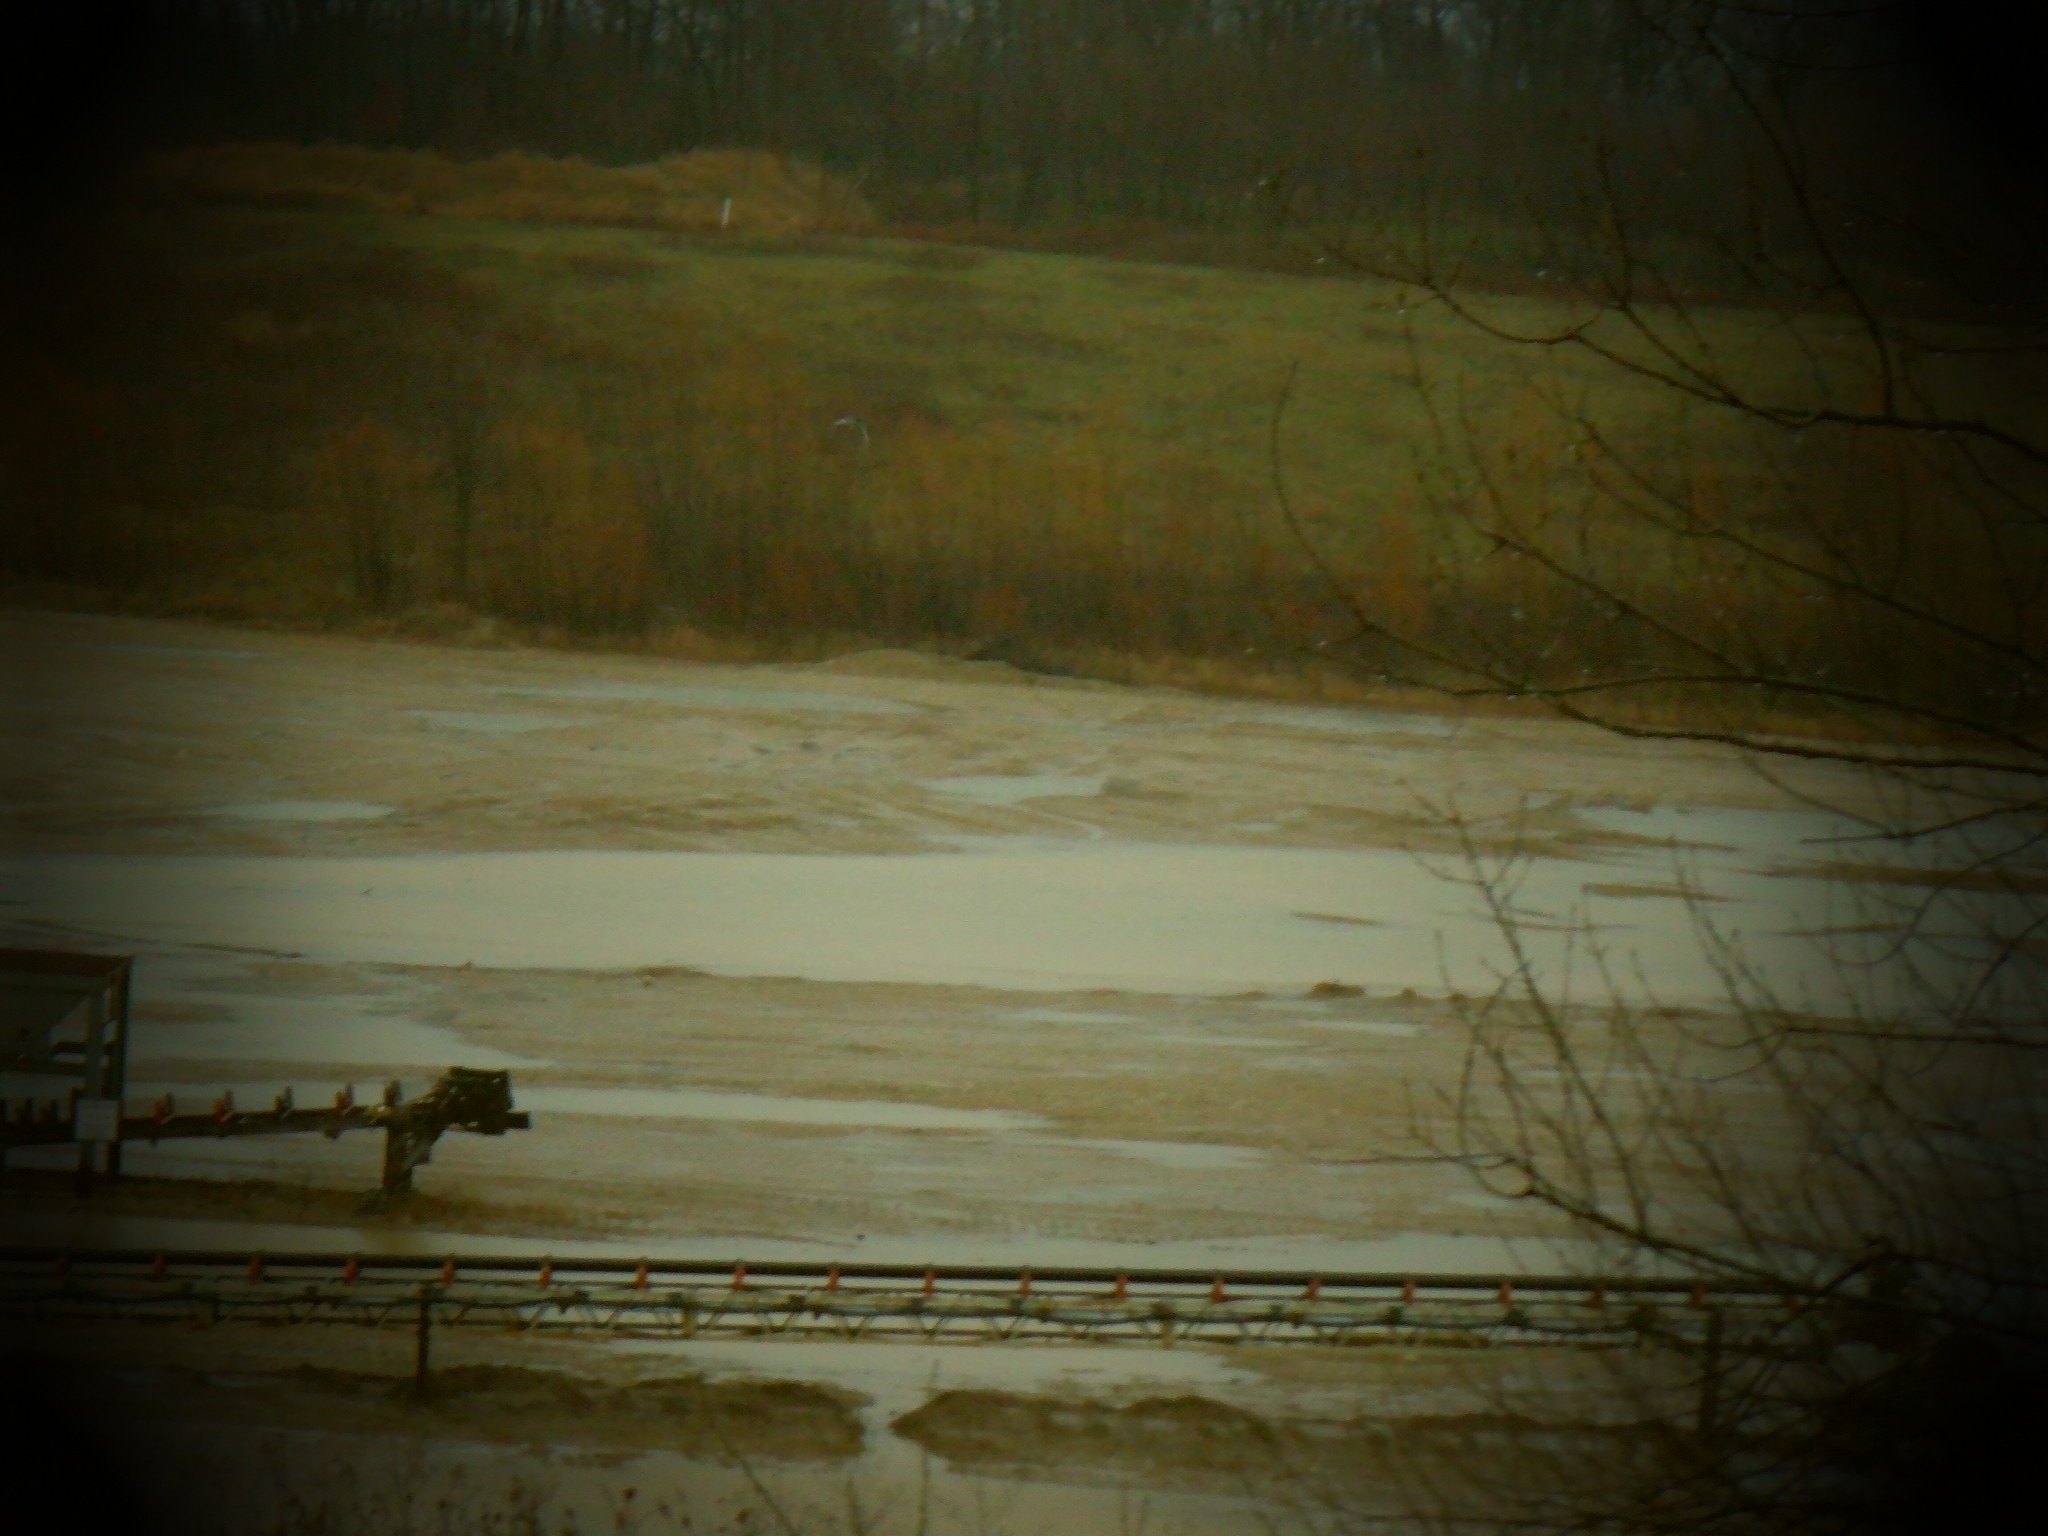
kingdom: Animalia
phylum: Chordata
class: Aves
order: Galliformes
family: Phasianidae
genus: Meleagris
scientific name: Meleagris gallopavo
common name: Wild turkey
